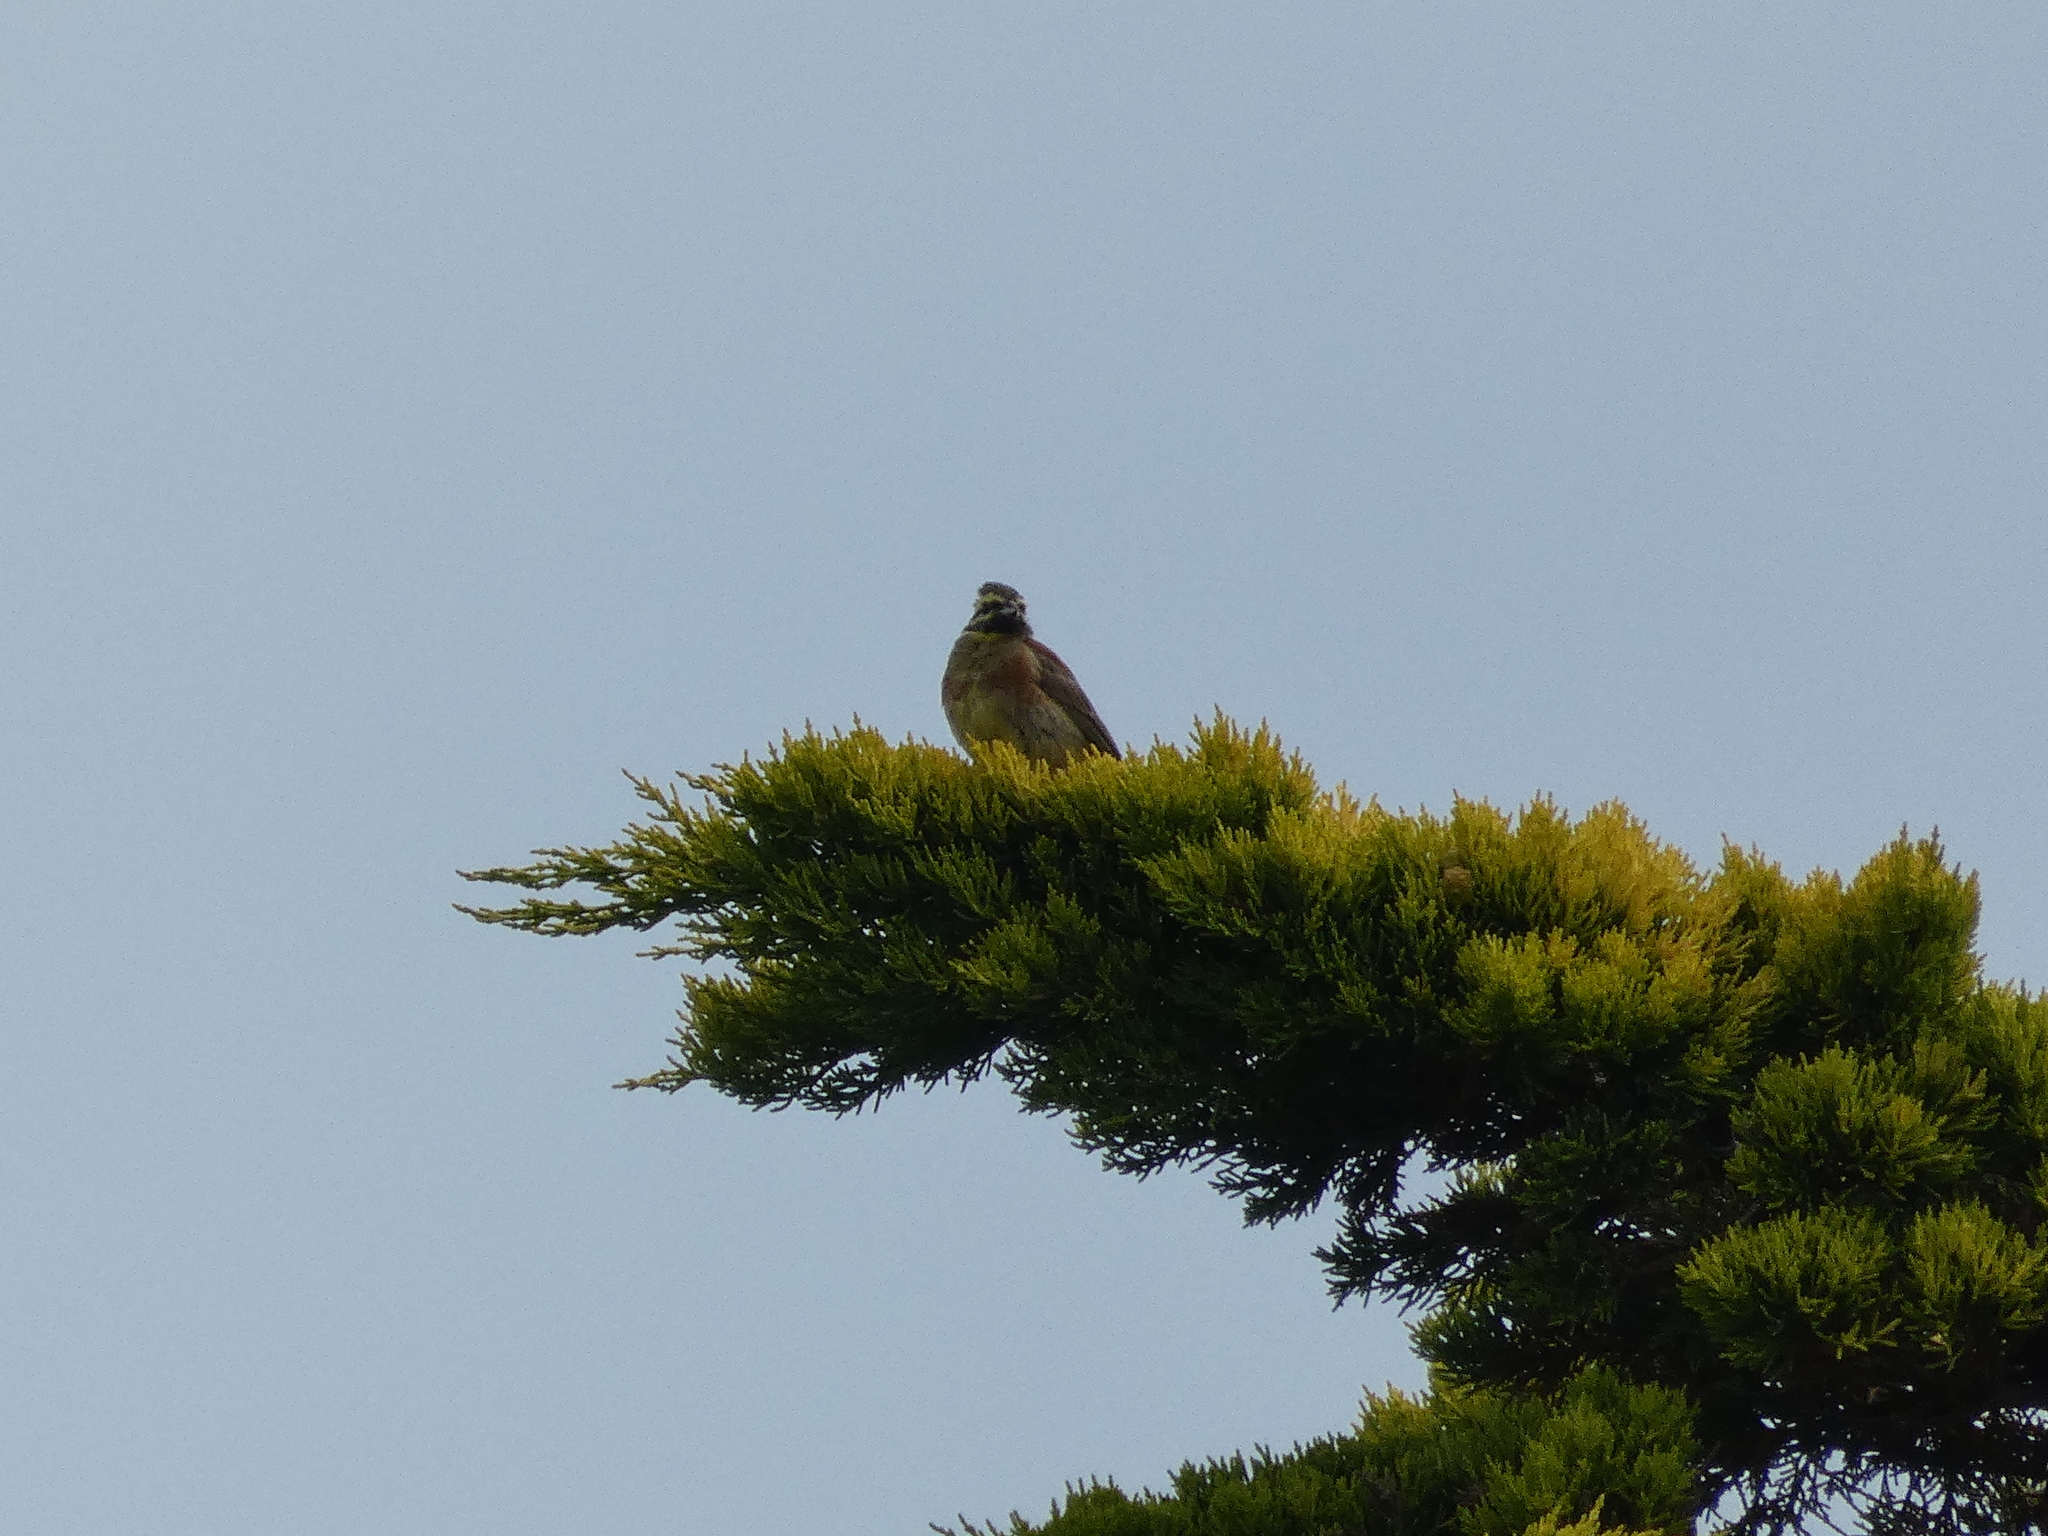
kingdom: Animalia
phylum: Chordata
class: Aves
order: Passeriformes
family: Emberizidae
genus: Emberiza
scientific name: Emberiza cirlus
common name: Cirl bunting
